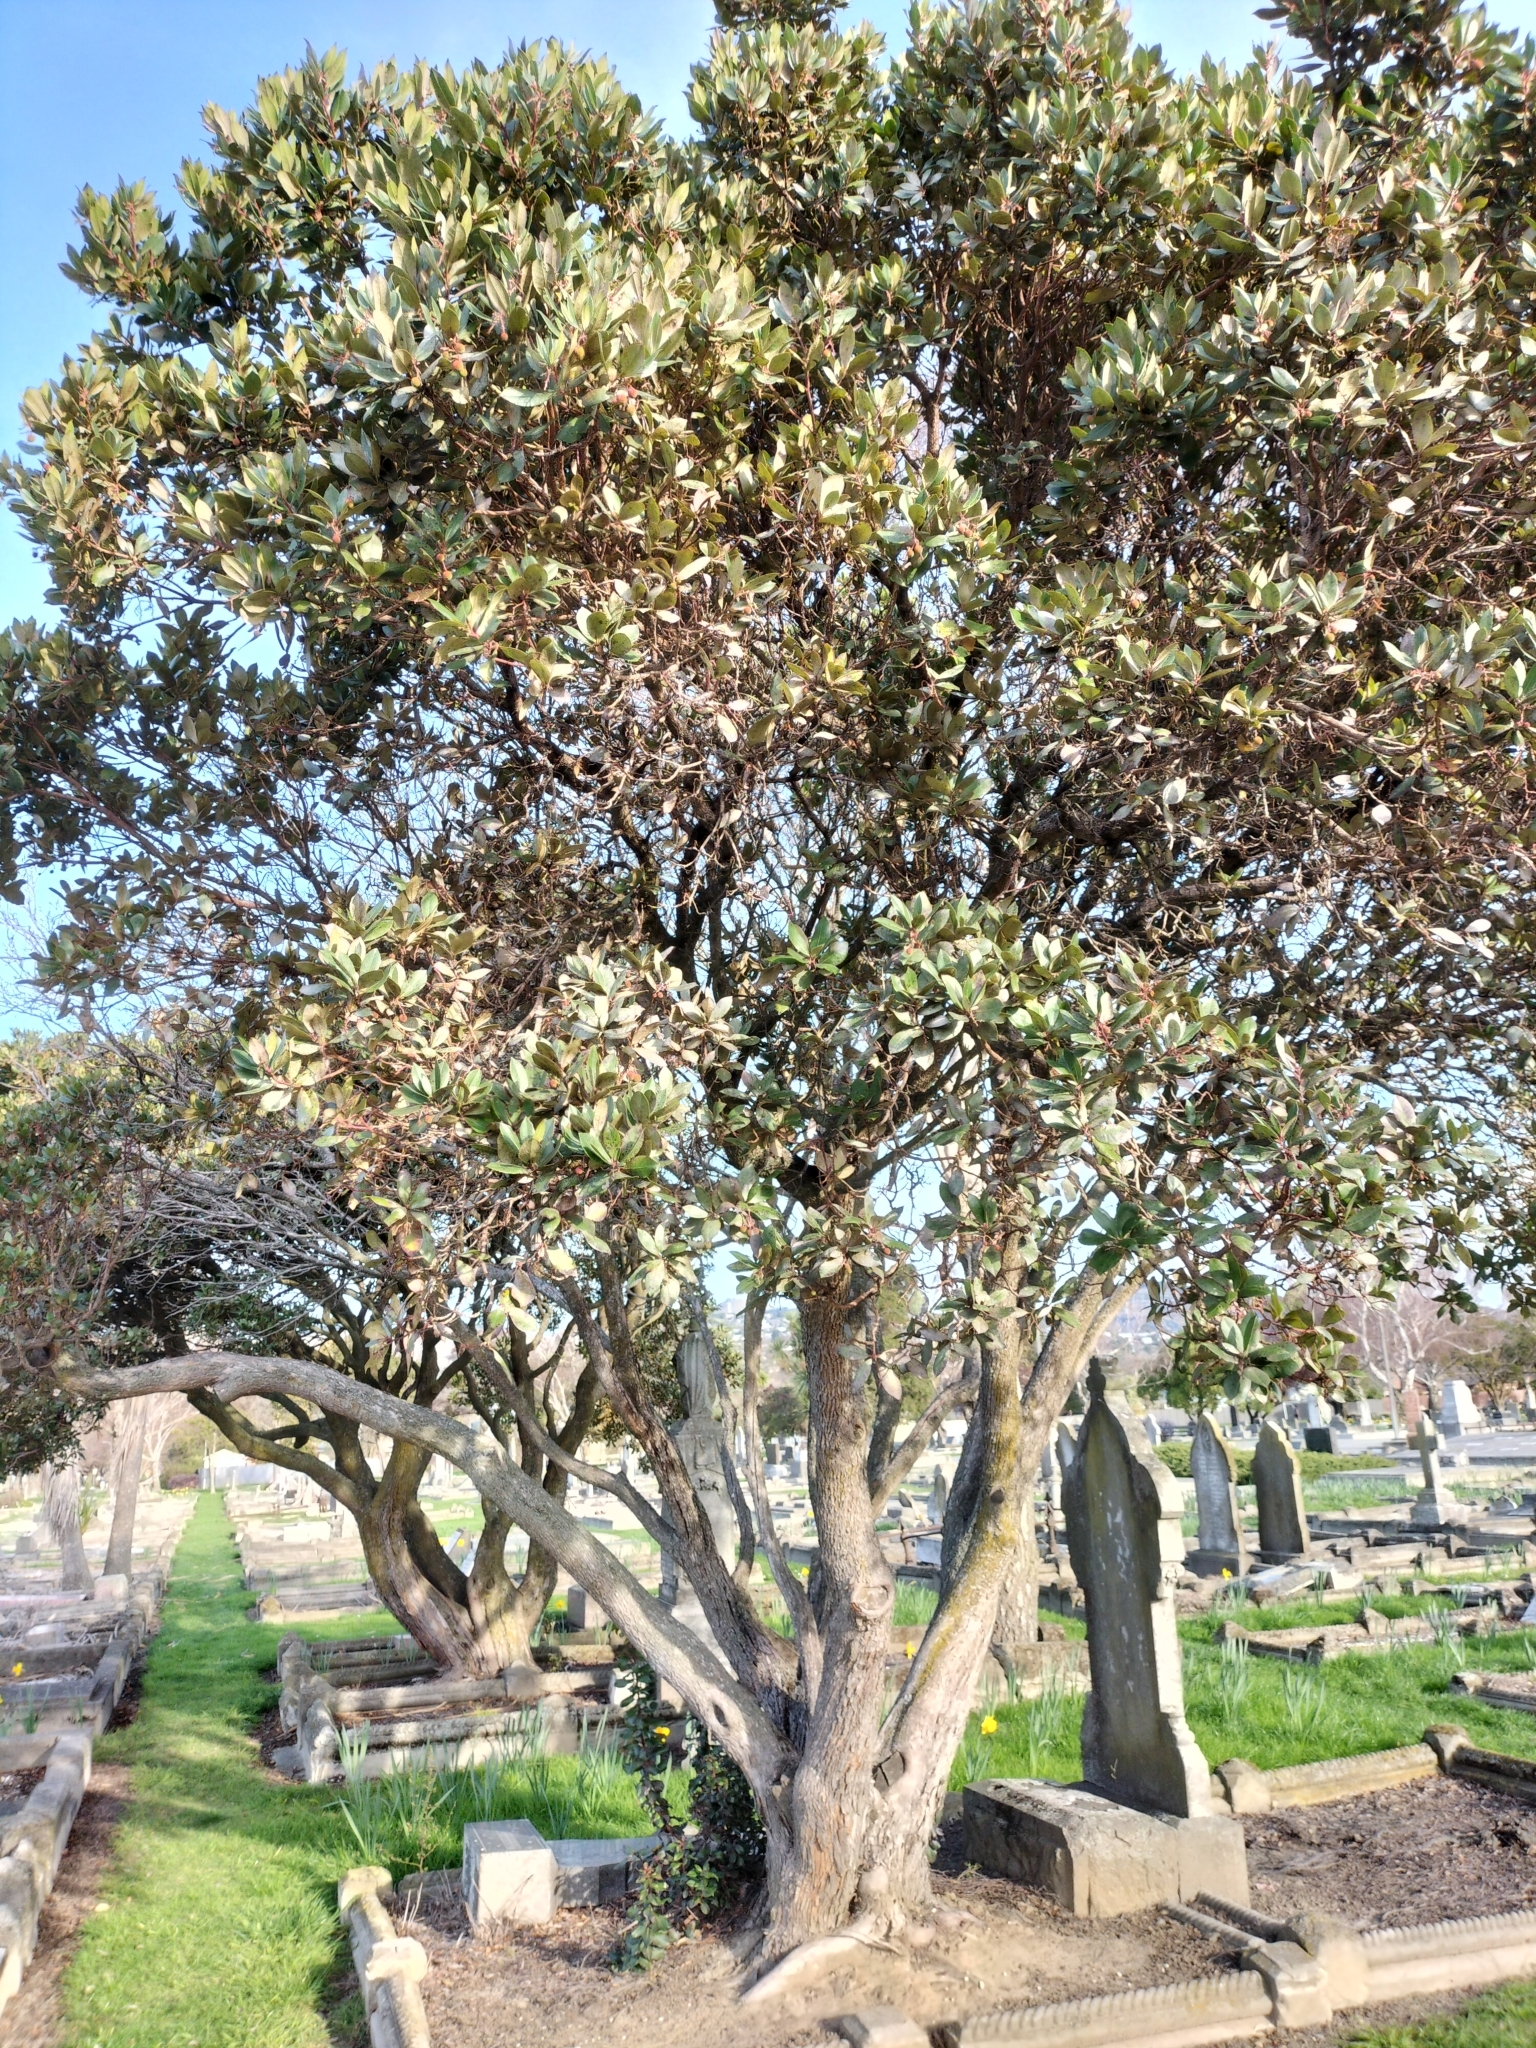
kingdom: Plantae
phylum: Tracheophyta
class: Magnoliopsida
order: Ericales
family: Ericaceae
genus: Arbutus
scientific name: Arbutus unedo
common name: Strawberry-tree
